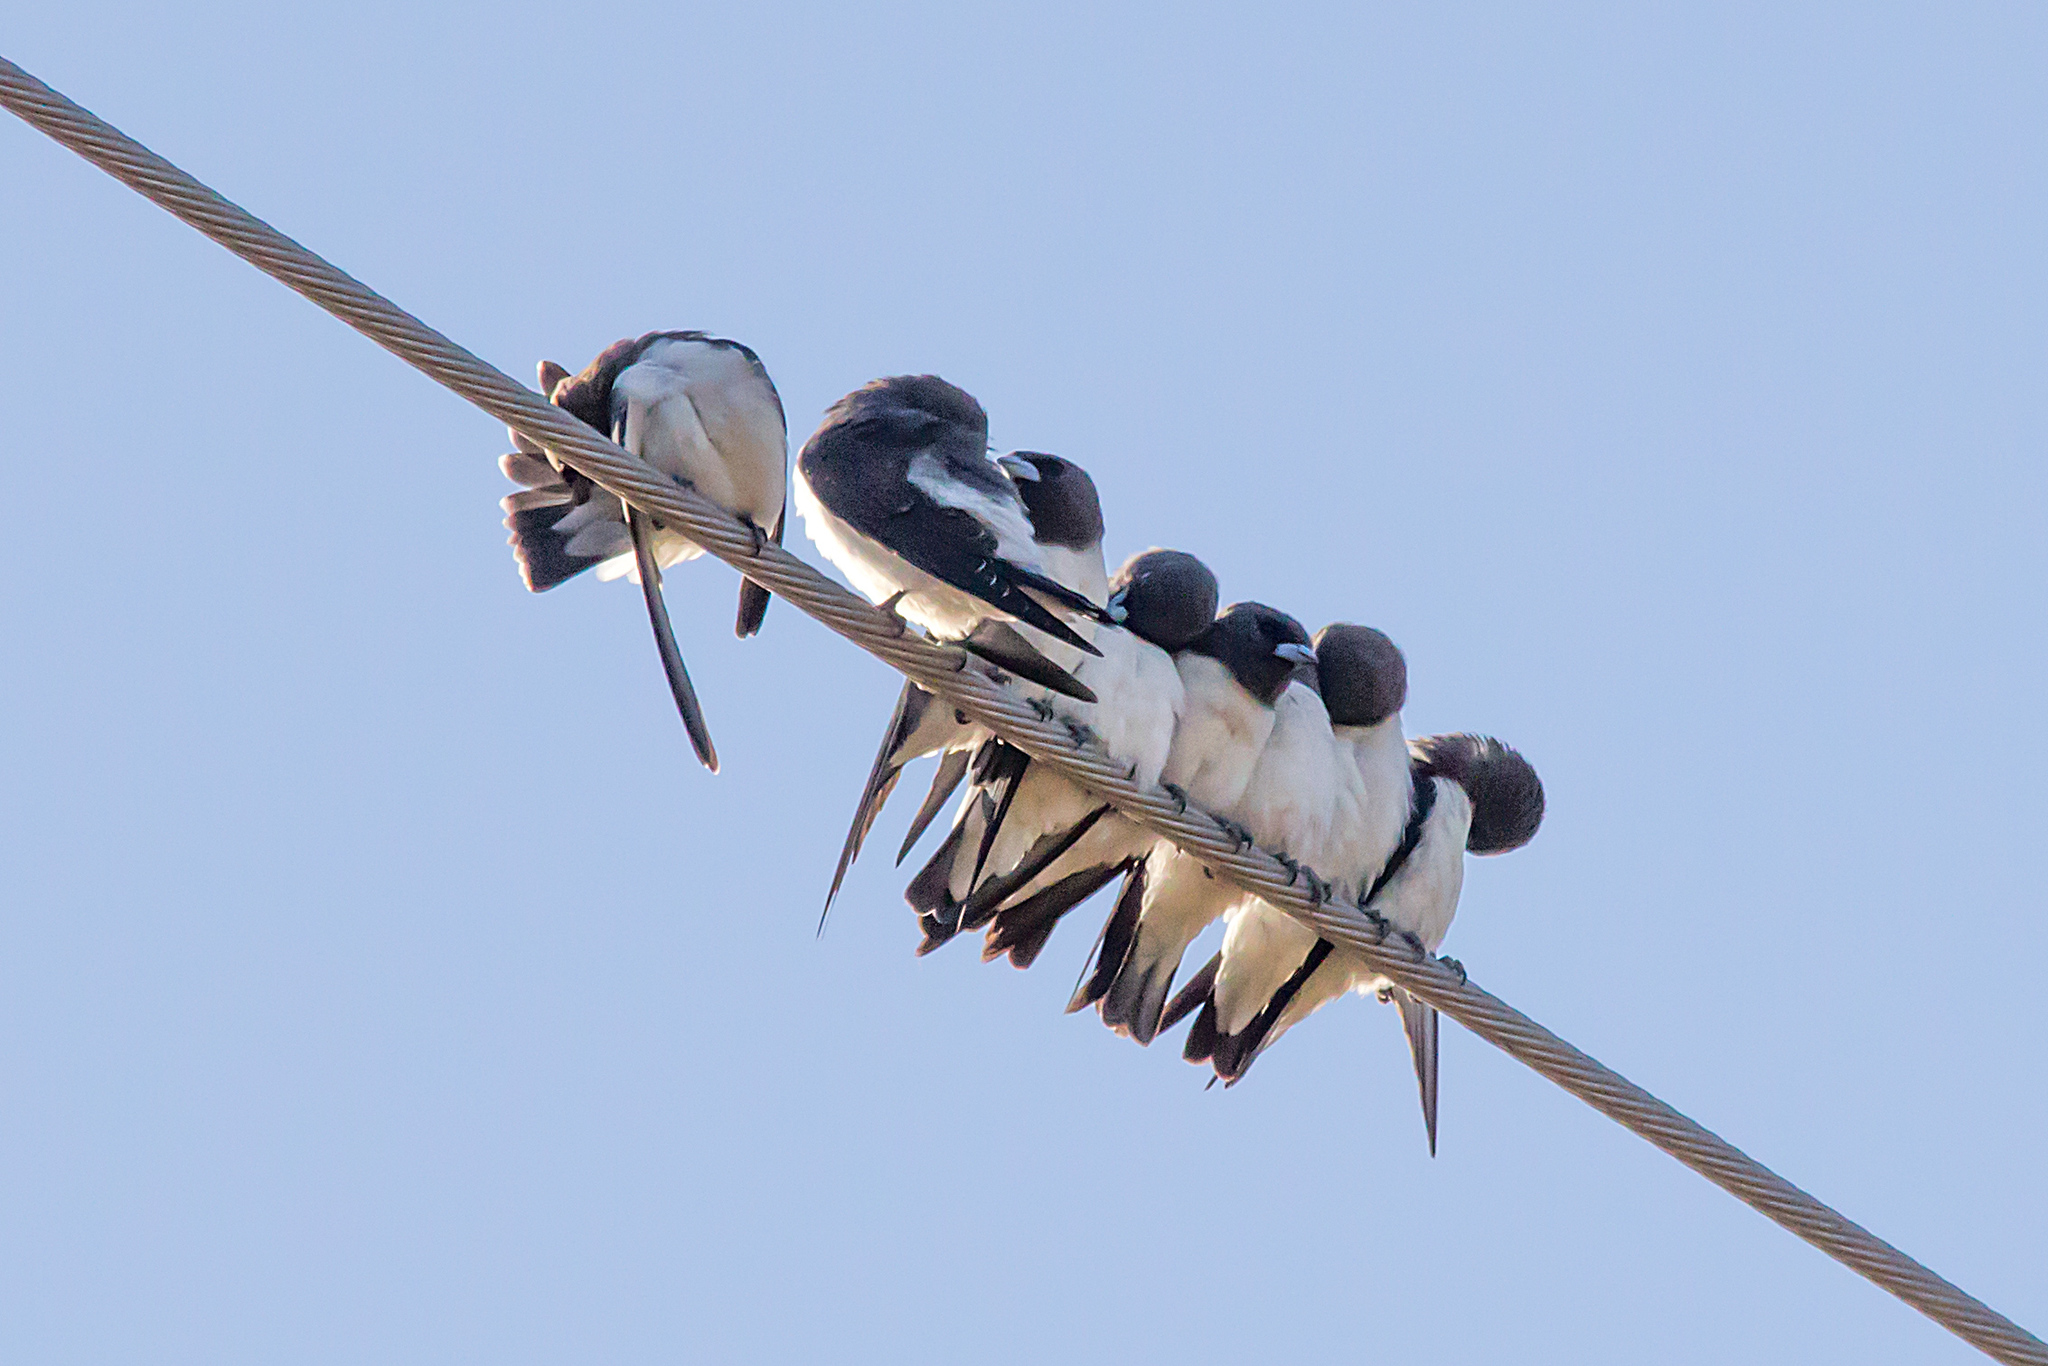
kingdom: Animalia
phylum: Chordata
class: Aves
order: Passeriformes
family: Artamidae
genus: Artamus
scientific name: Artamus leucoryn
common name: White-breasted woodswallow
